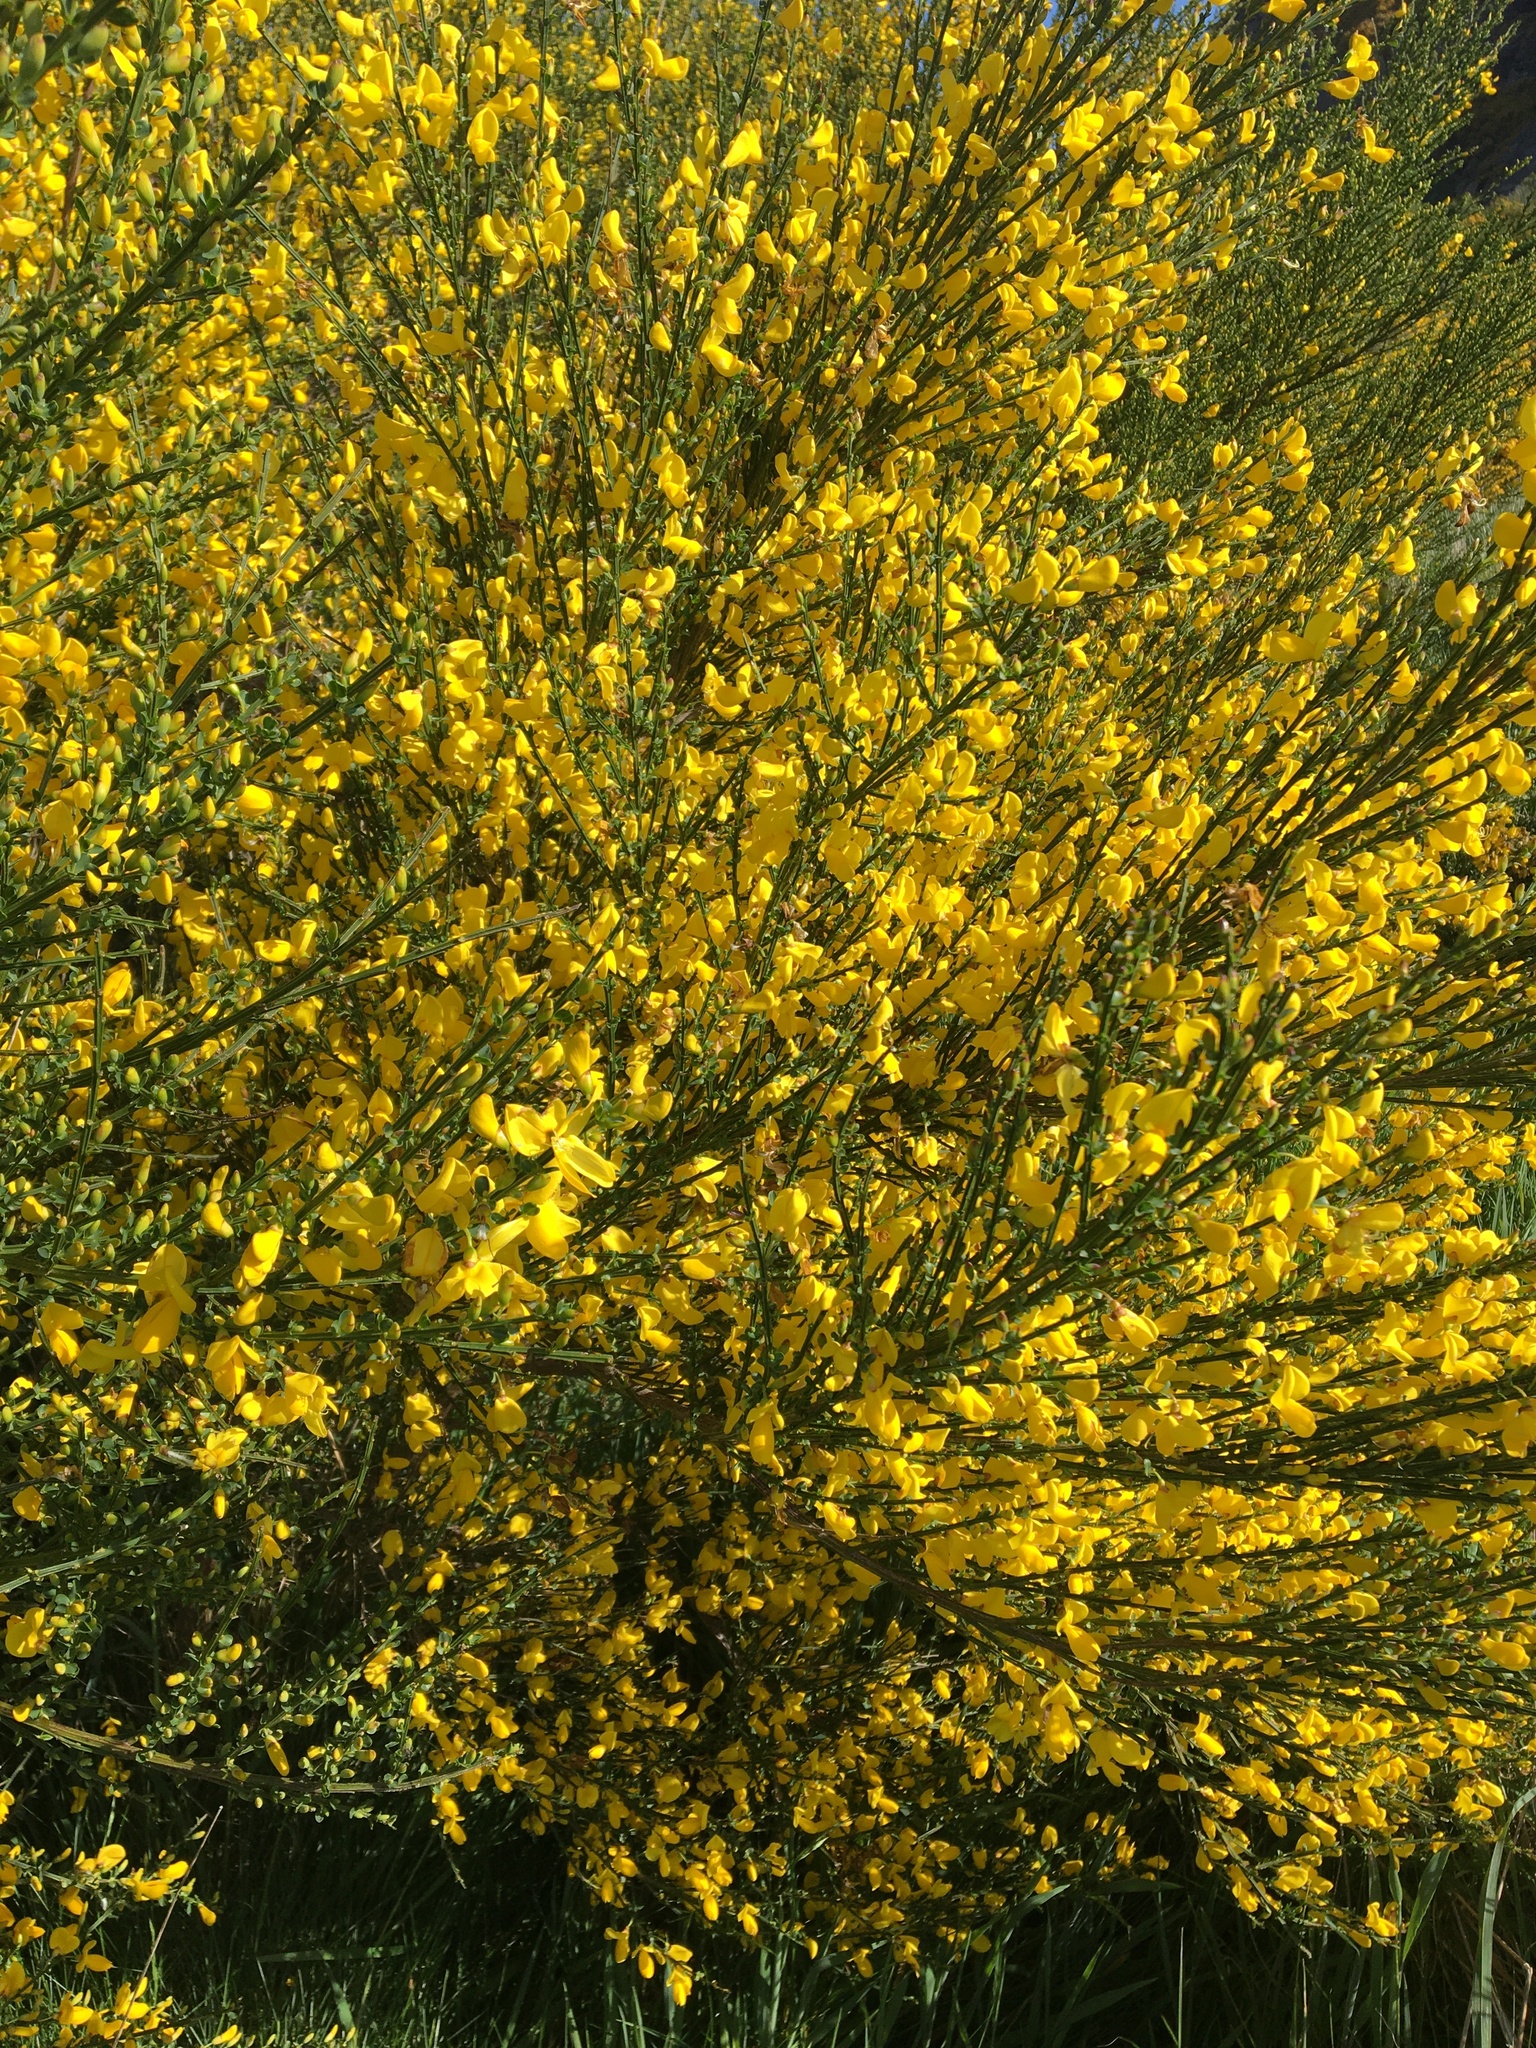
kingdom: Plantae
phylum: Tracheophyta
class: Magnoliopsida
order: Fabales
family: Fabaceae
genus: Cytisus
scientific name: Cytisus scoparius
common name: Scotch broom
